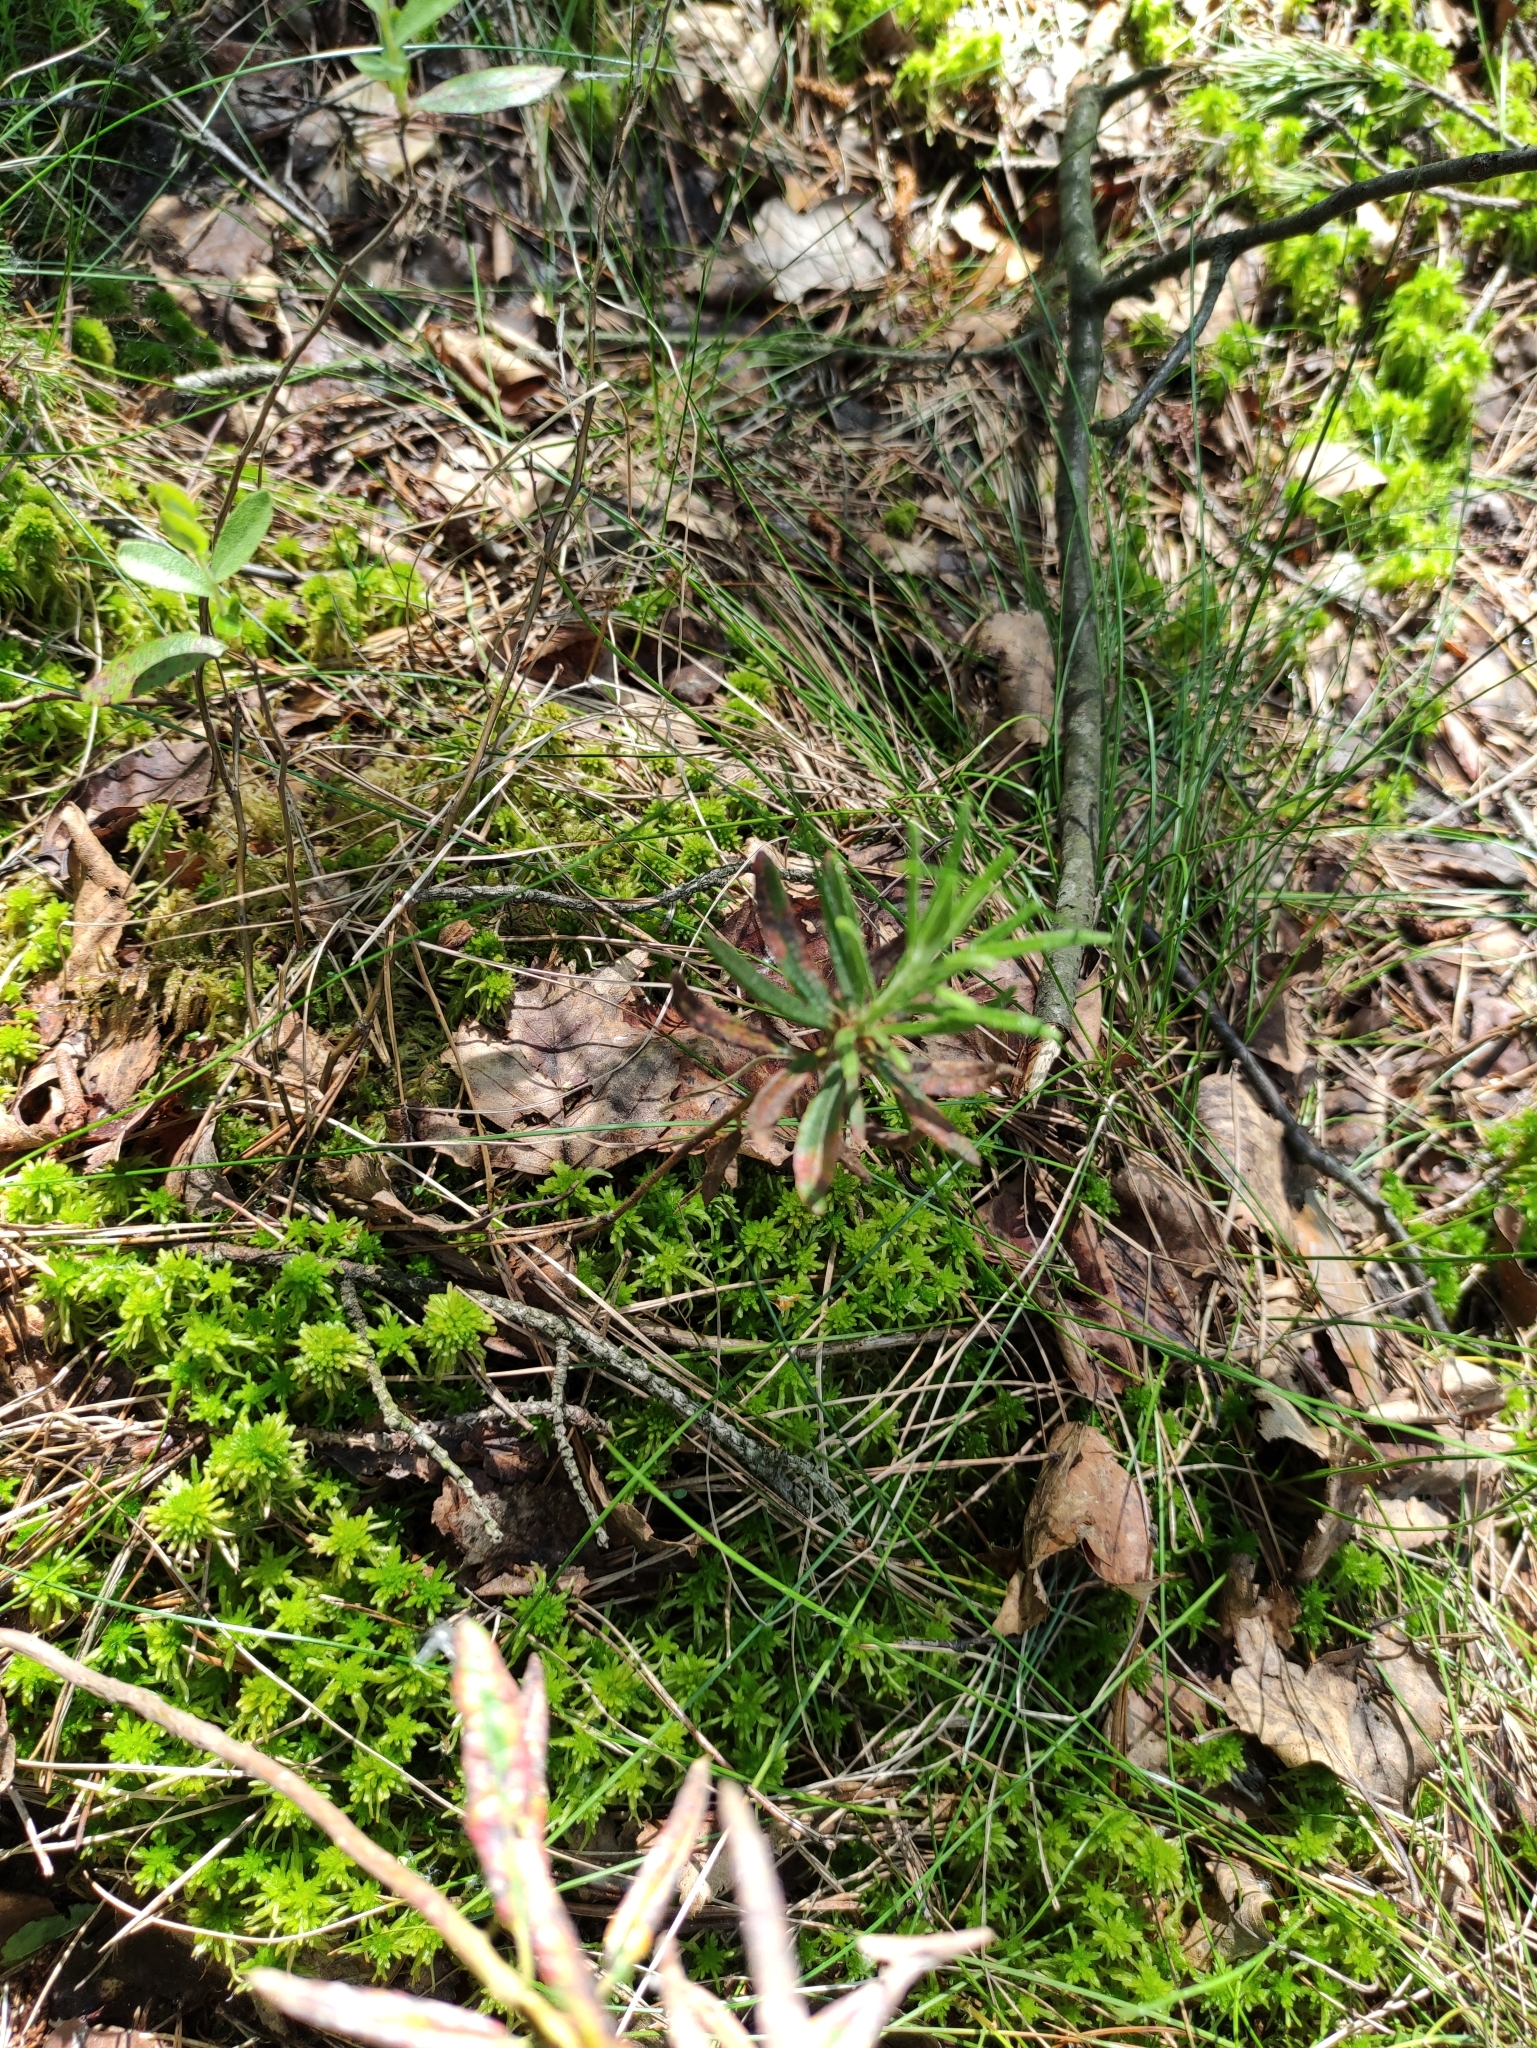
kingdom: Plantae
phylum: Tracheophyta
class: Magnoliopsida
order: Ericales
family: Ericaceae
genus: Rhododendron
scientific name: Rhododendron tomentosum
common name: Marsh labrador tea
